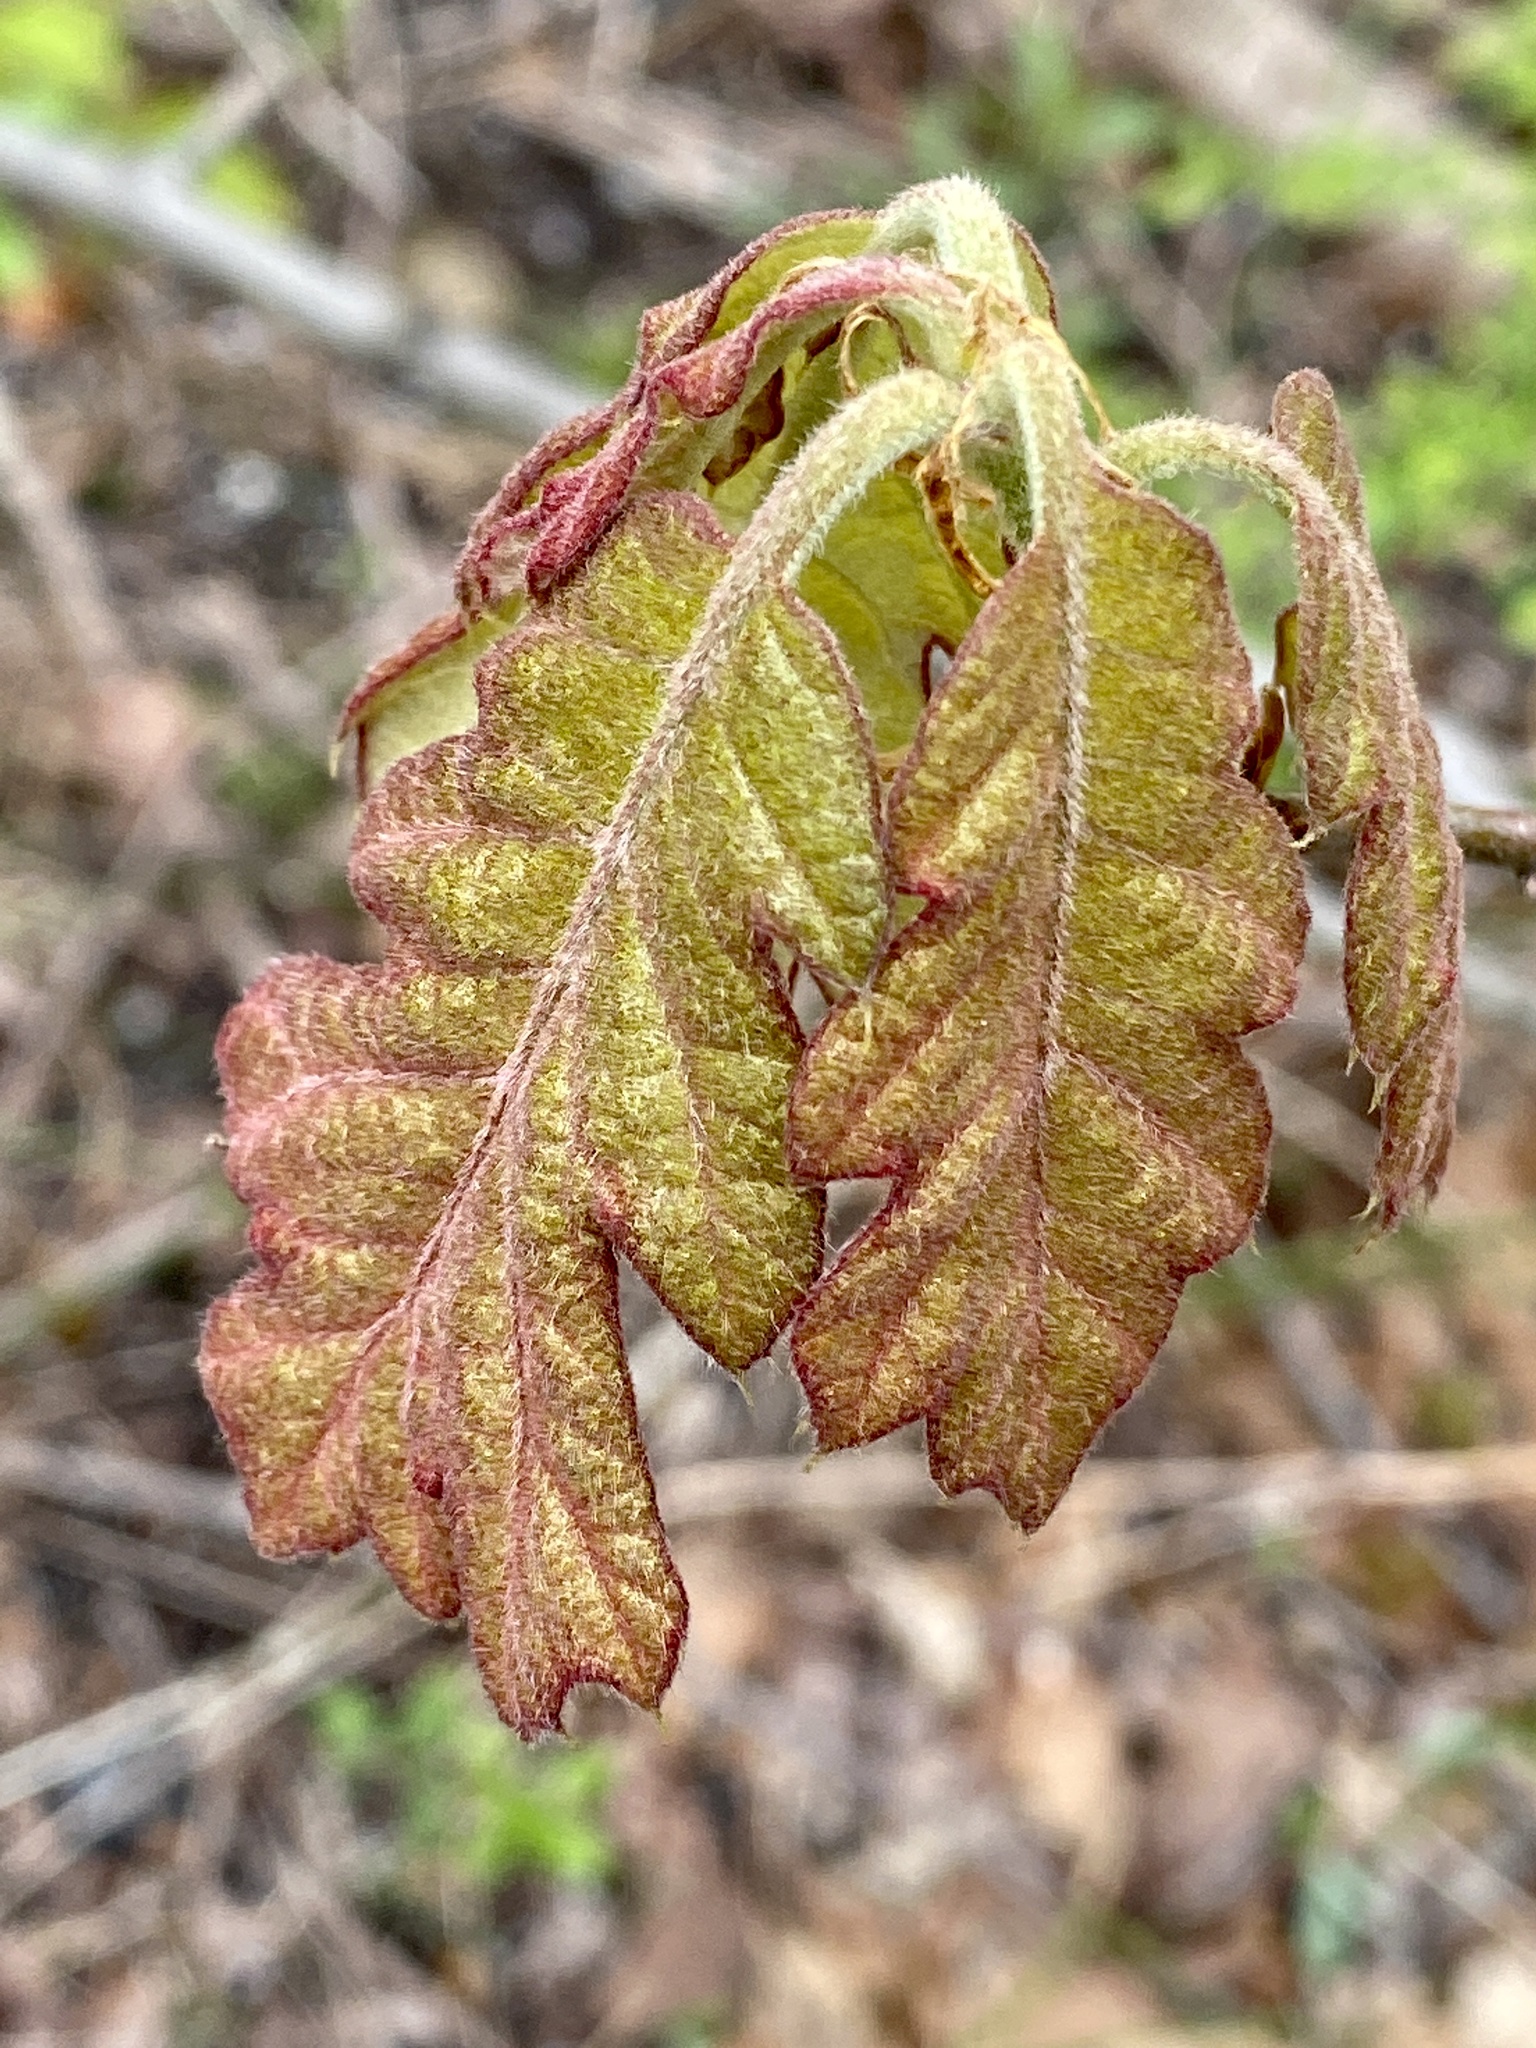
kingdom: Plantae
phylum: Tracheophyta
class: Magnoliopsida
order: Fagales
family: Fagaceae
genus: Quercus
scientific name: Quercus alba
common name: White oak
